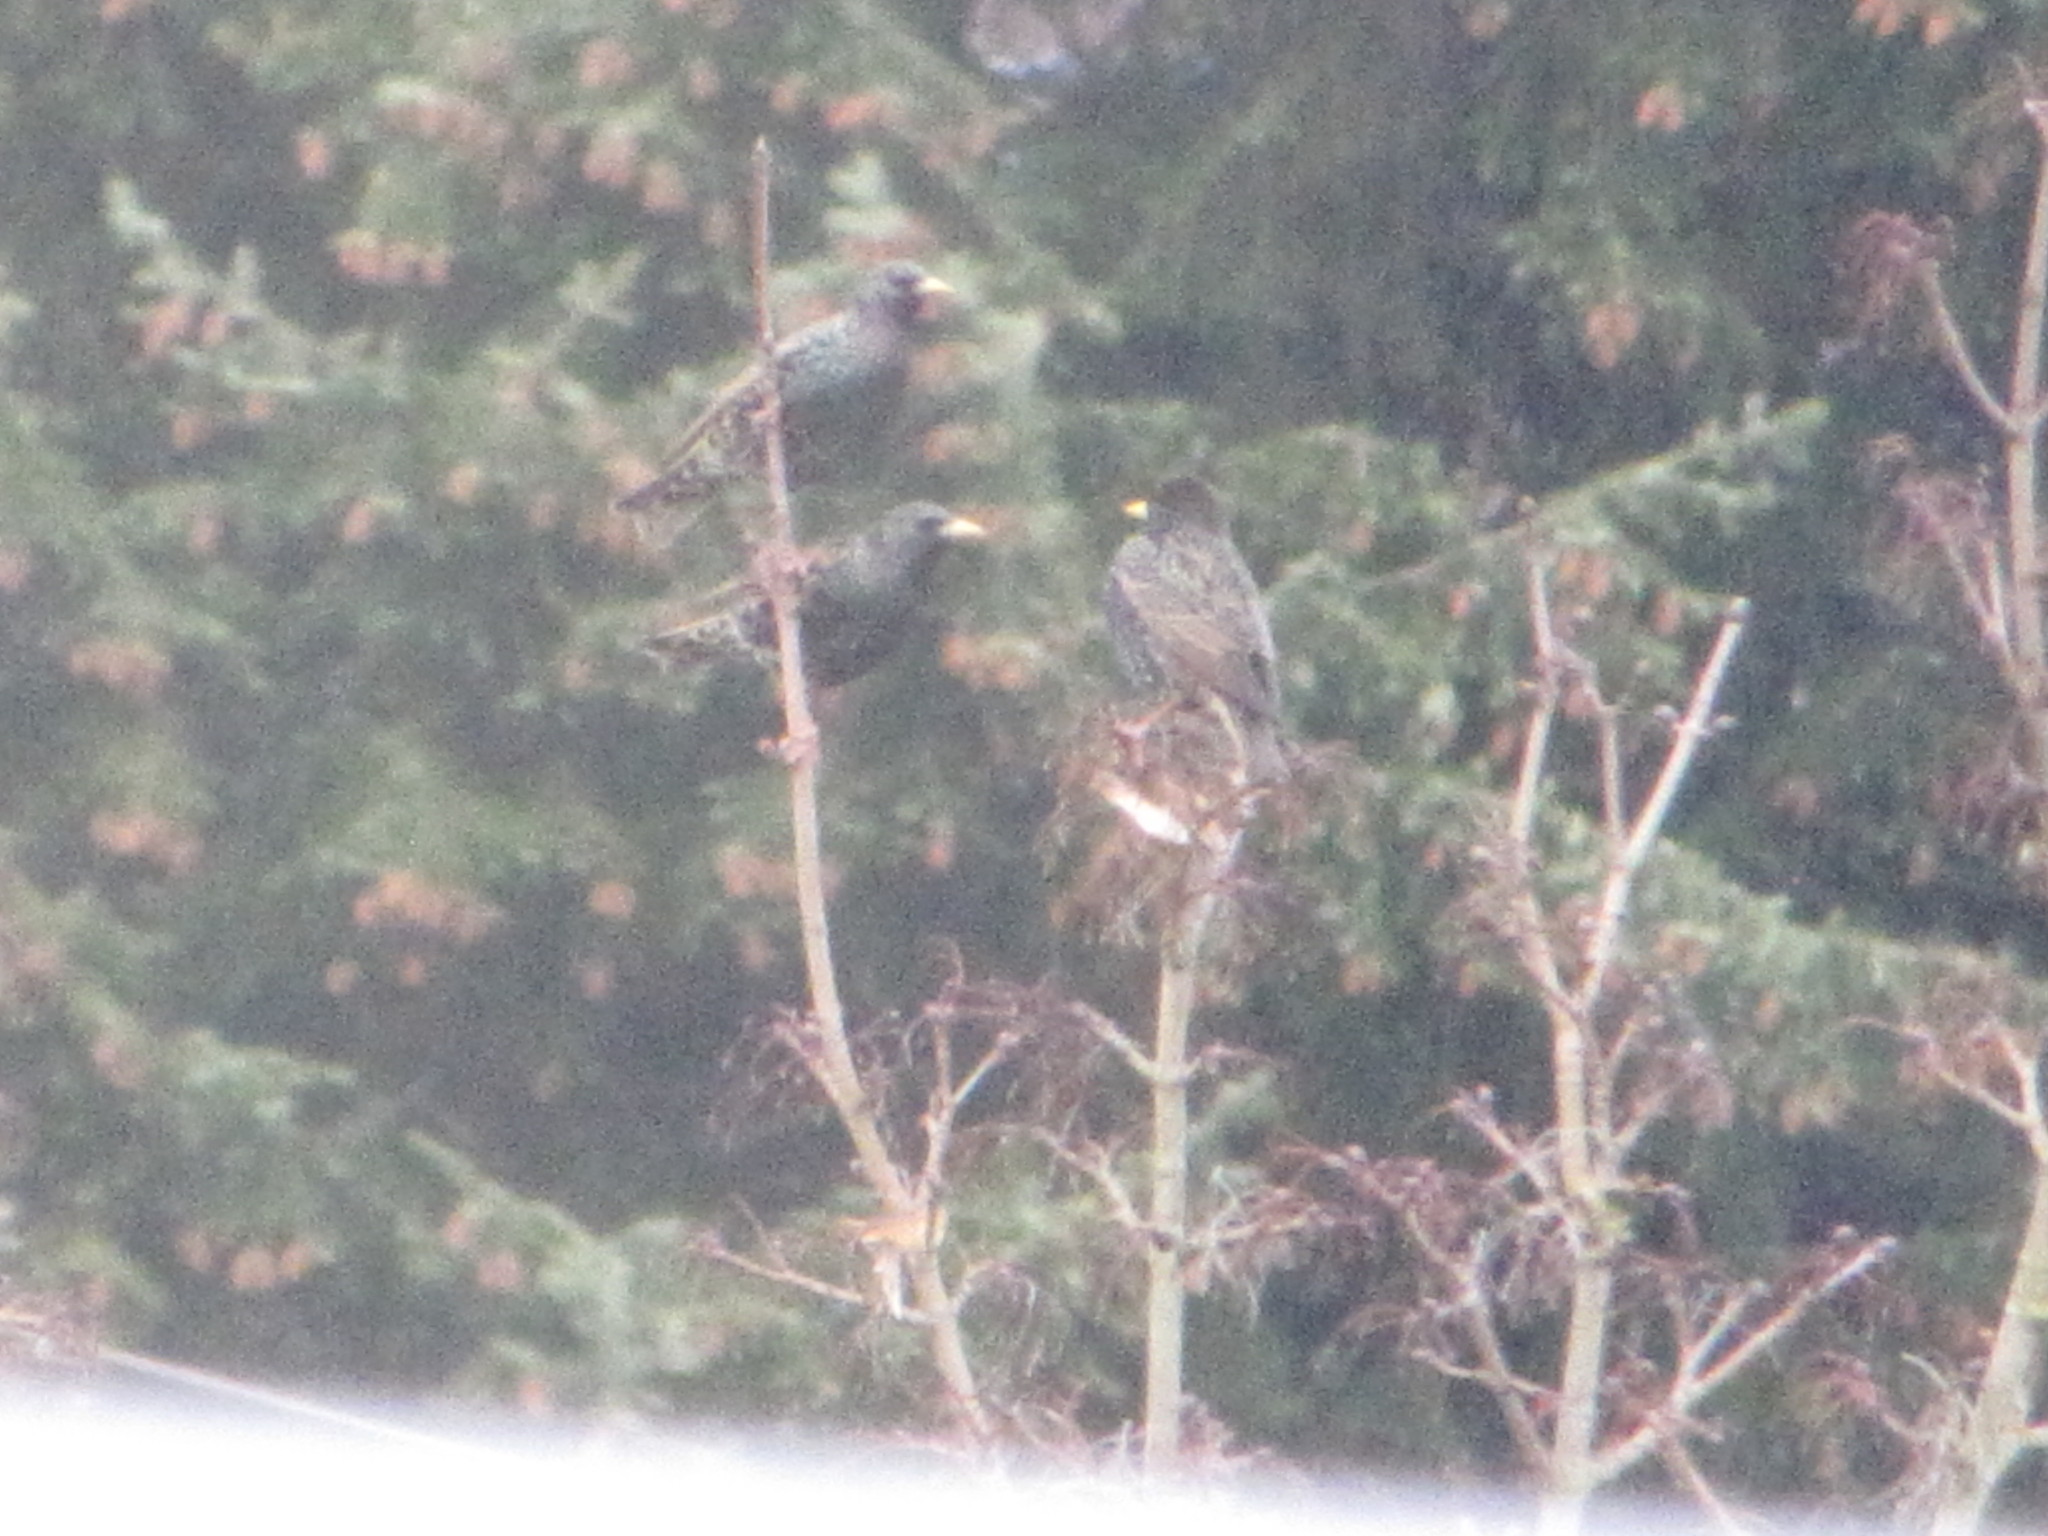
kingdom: Animalia
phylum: Chordata
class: Aves
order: Passeriformes
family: Sturnidae
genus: Sturnus
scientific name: Sturnus vulgaris
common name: Common starling
